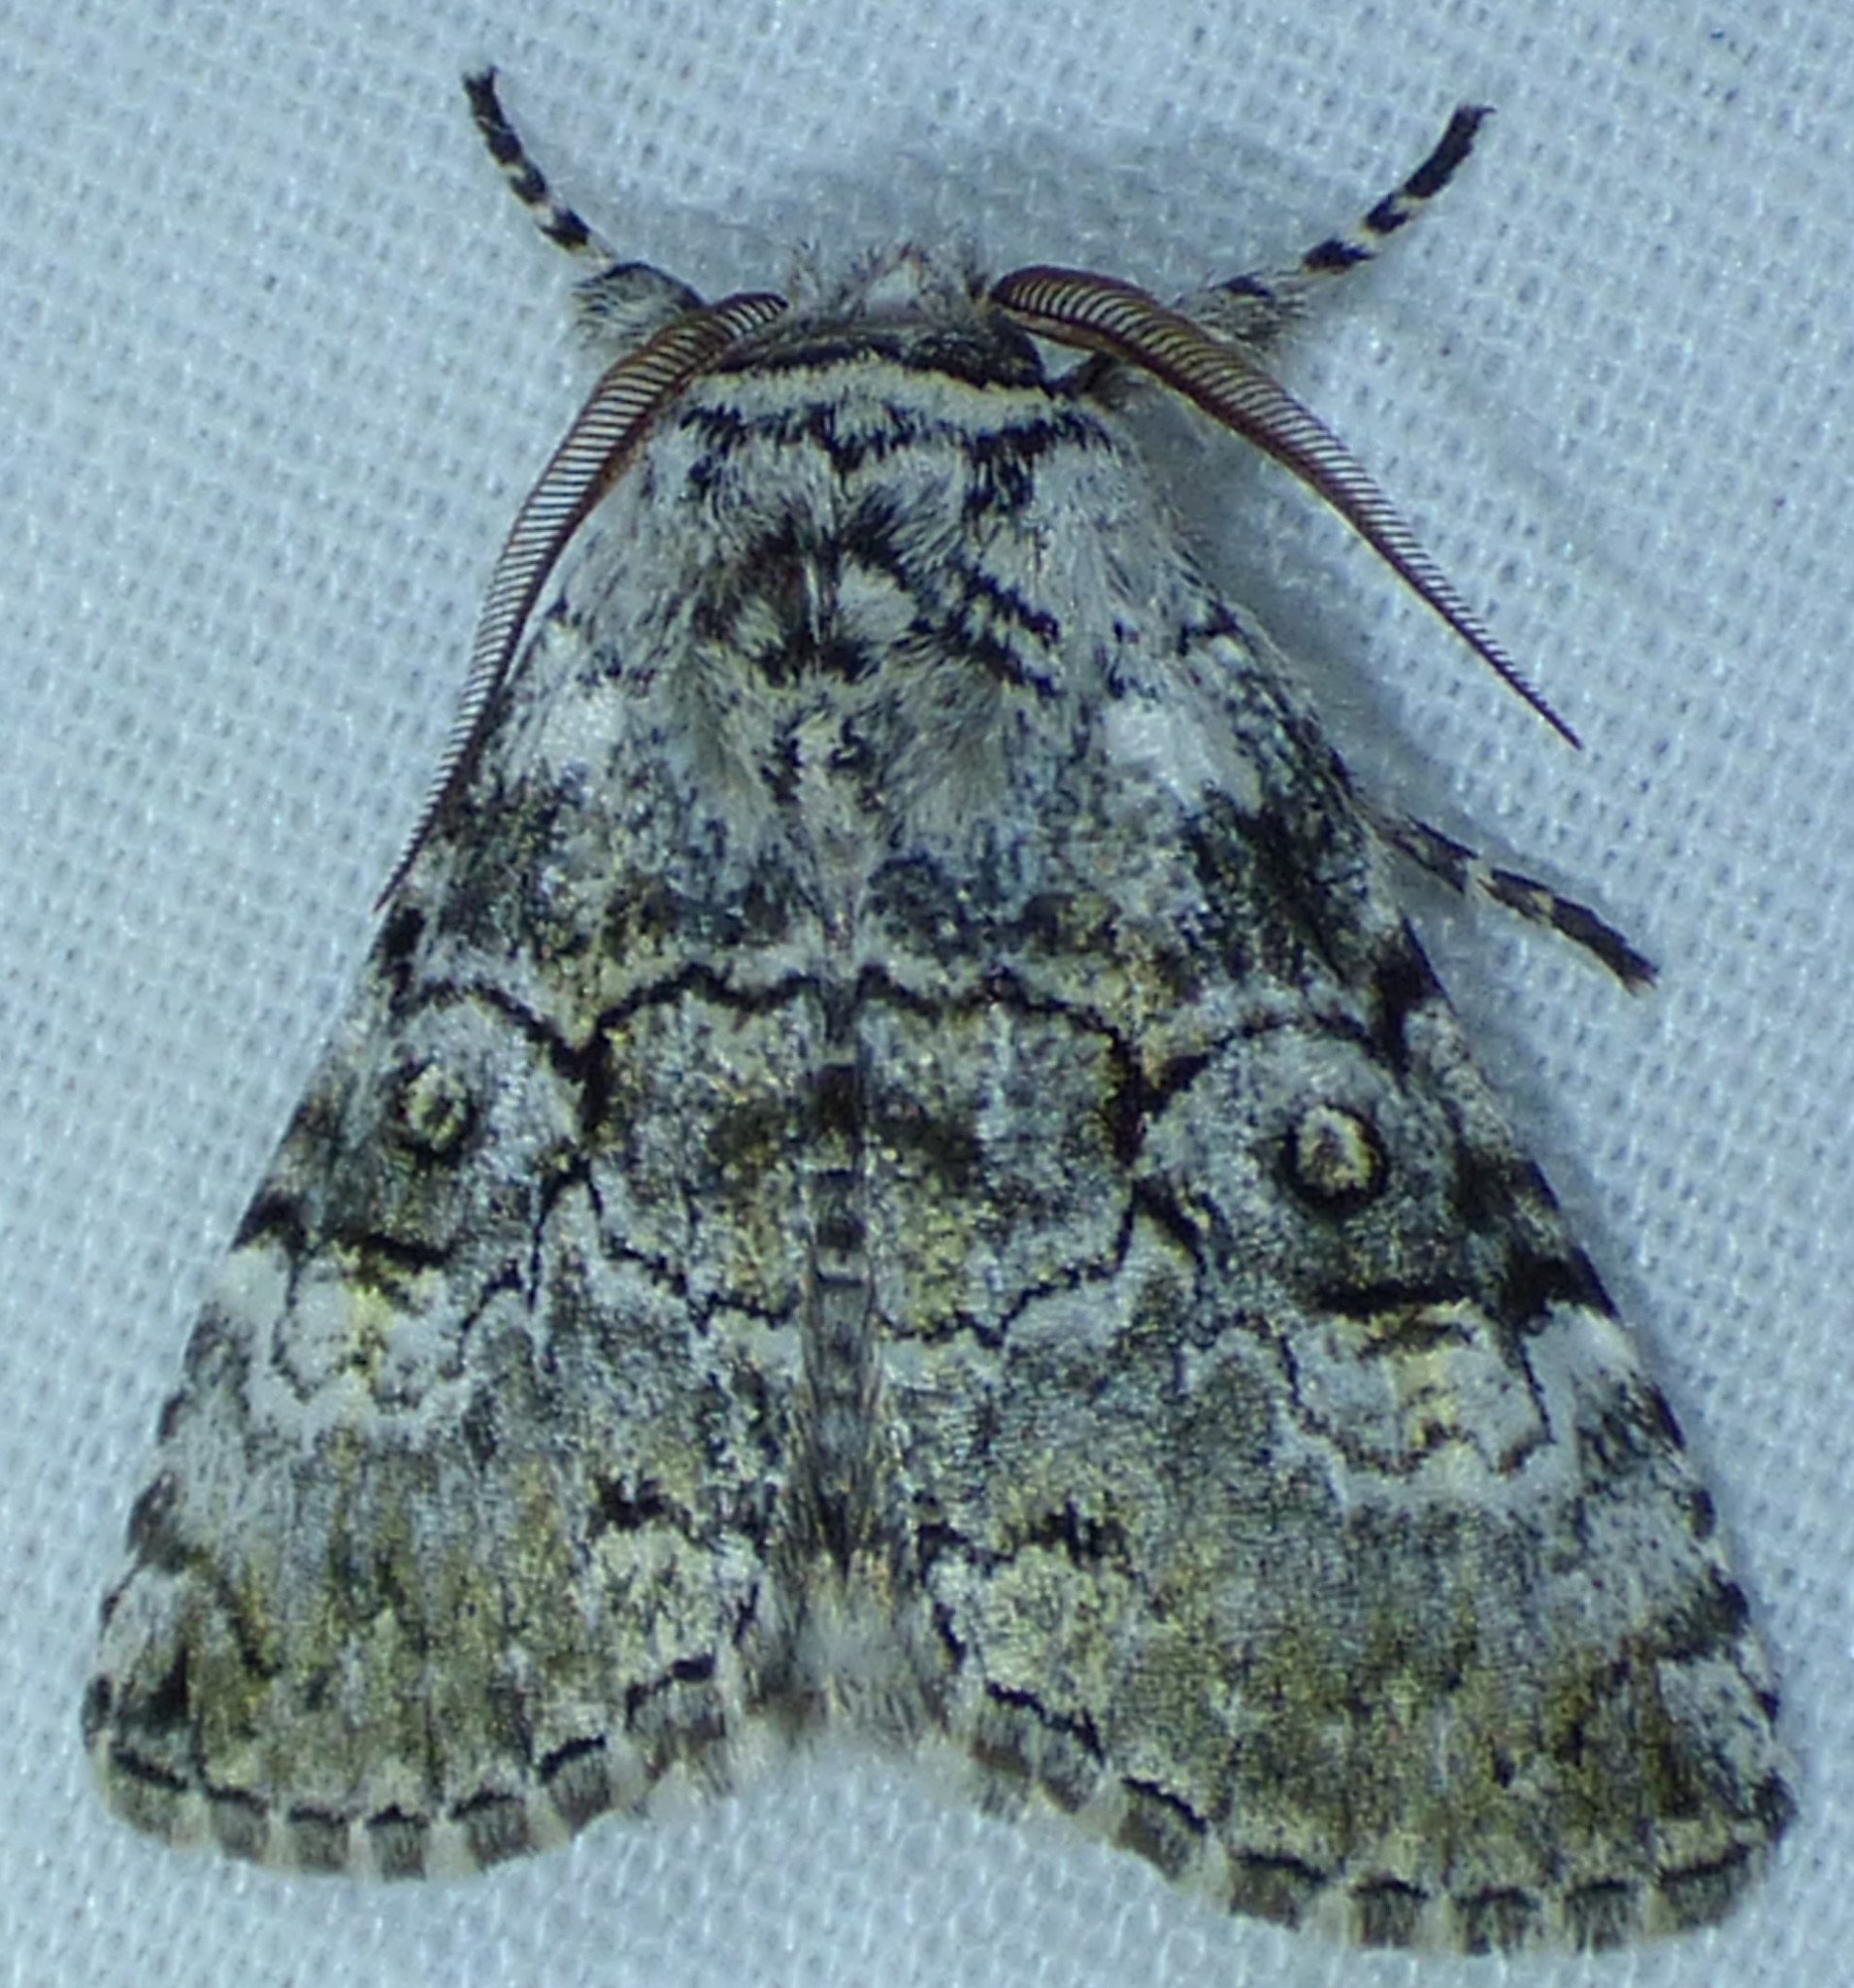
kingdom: Animalia
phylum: Arthropoda
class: Insecta
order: Lepidoptera
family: Noctuidae
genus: Charadra
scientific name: Charadra deridens
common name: Marbled tuffet
